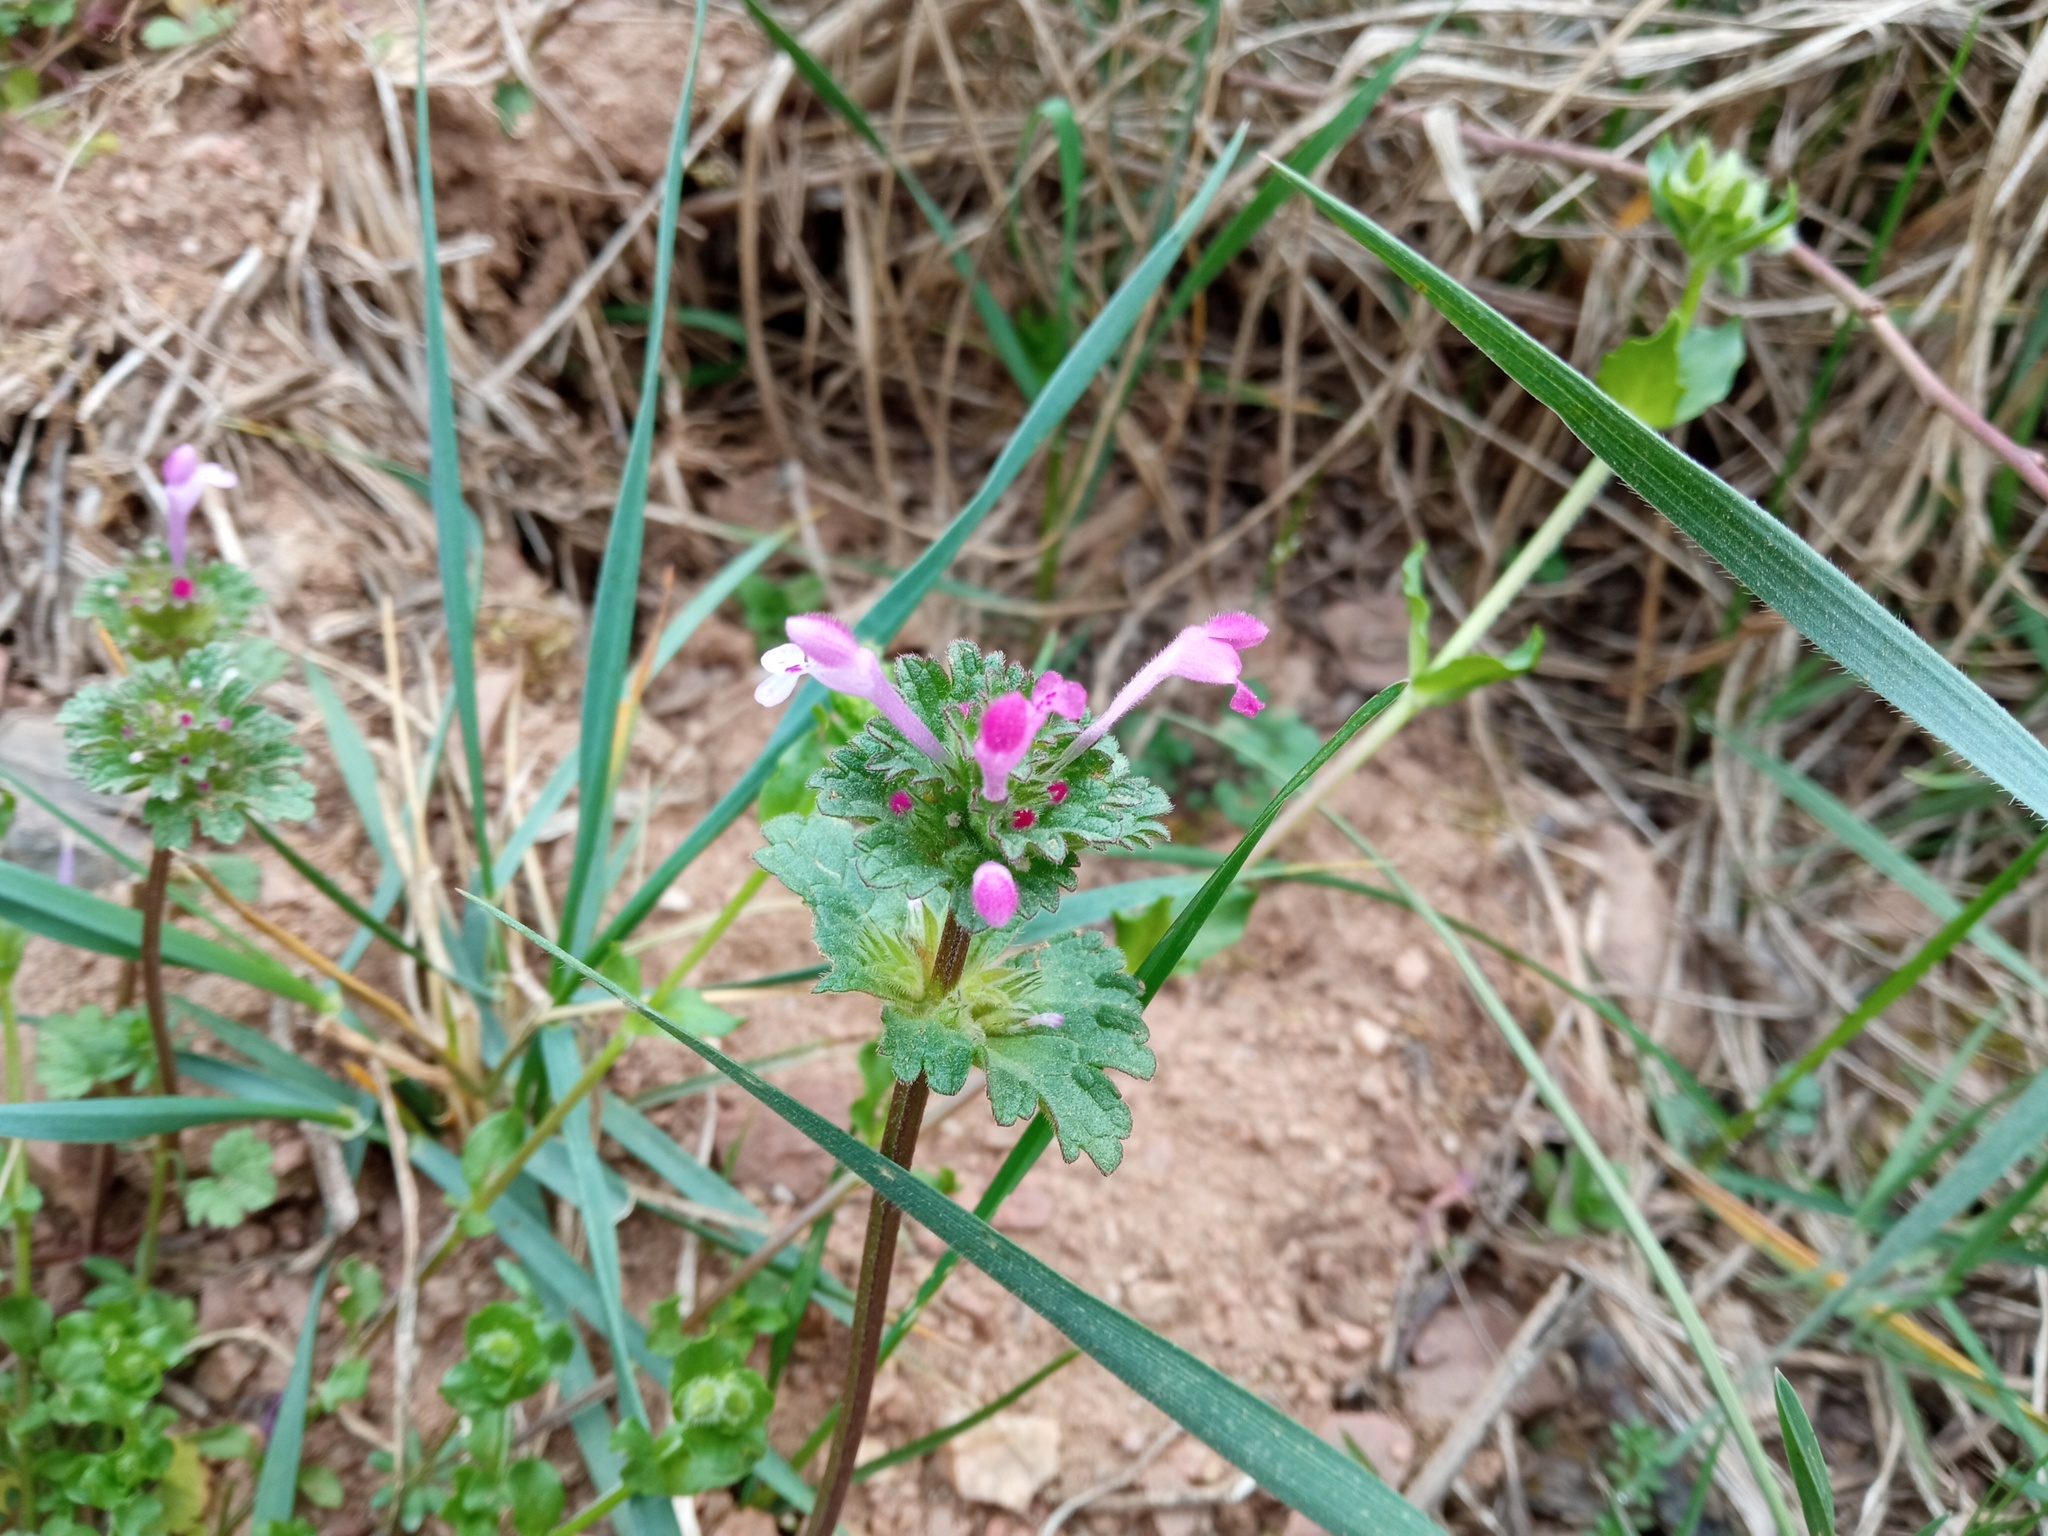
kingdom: Plantae
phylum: Tracheophyta
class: Magnoliopsida
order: Lamiales
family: Lamiaceae
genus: Lamium
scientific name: Lamium amplexicaule
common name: Henbit dead-nettle
